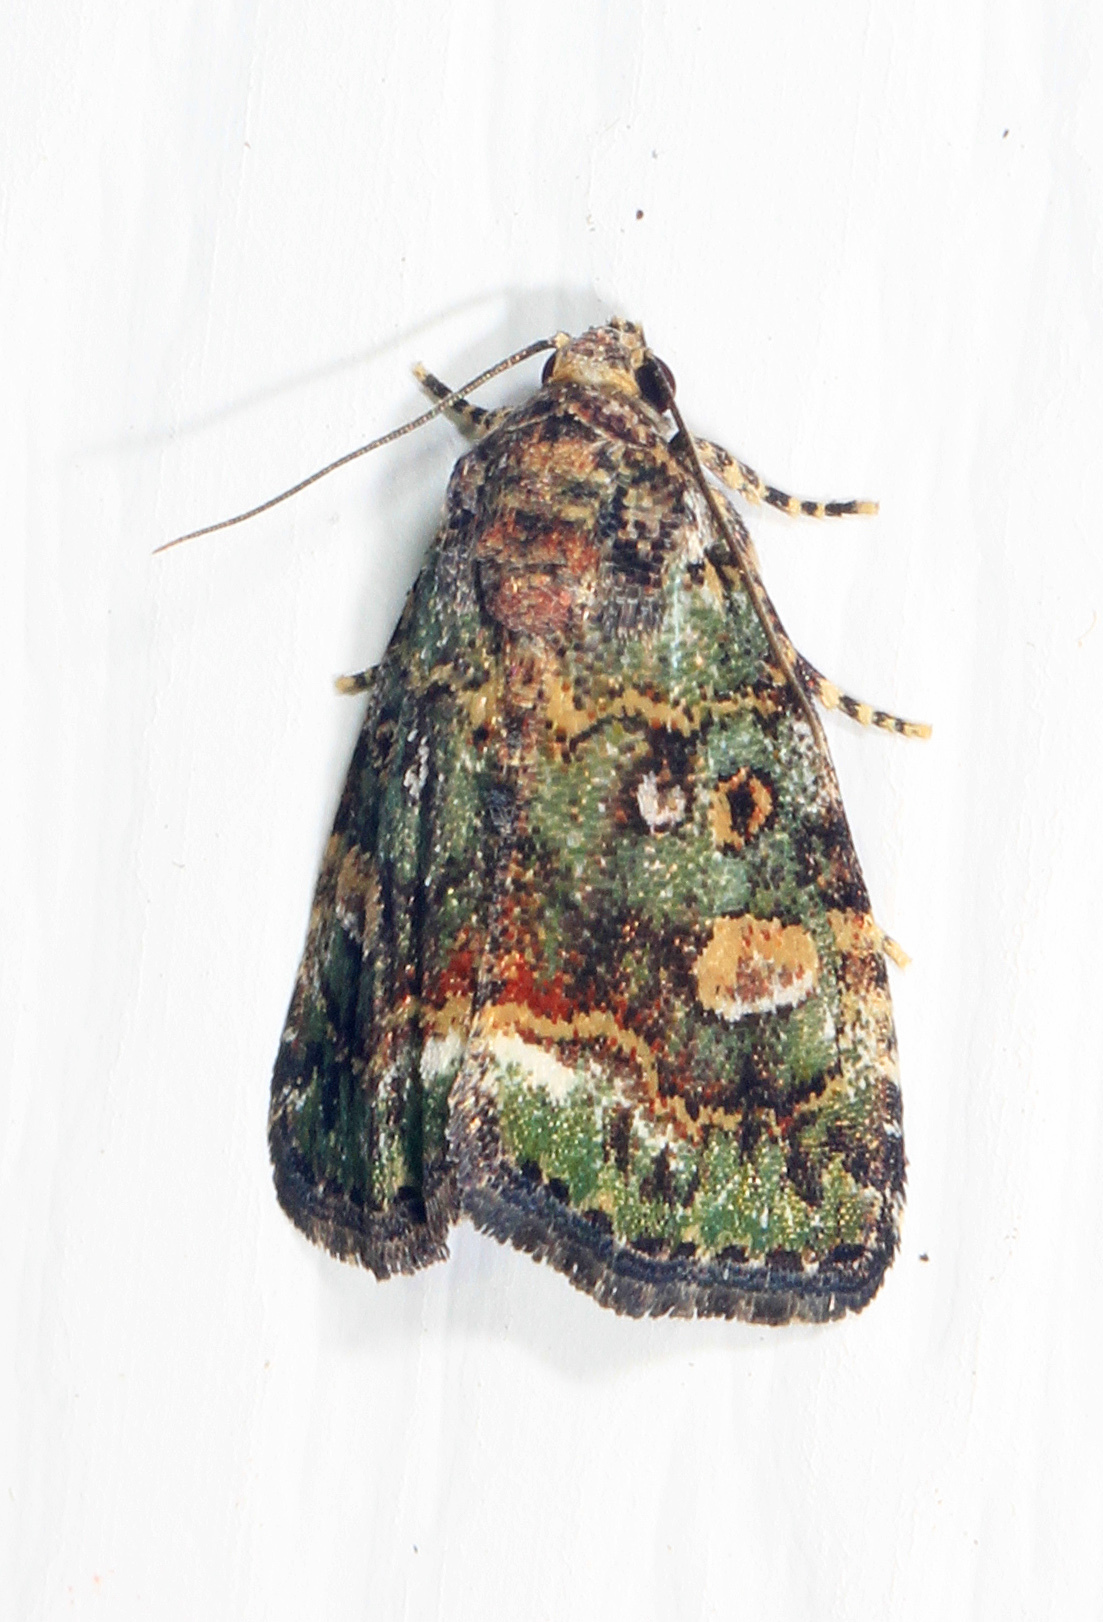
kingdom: Animalia
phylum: Arthropoda
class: Insecta
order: Lepidoptera
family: Noctuidae
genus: Lithacodia
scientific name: Lithacodia musta
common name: Small mossy glyph
